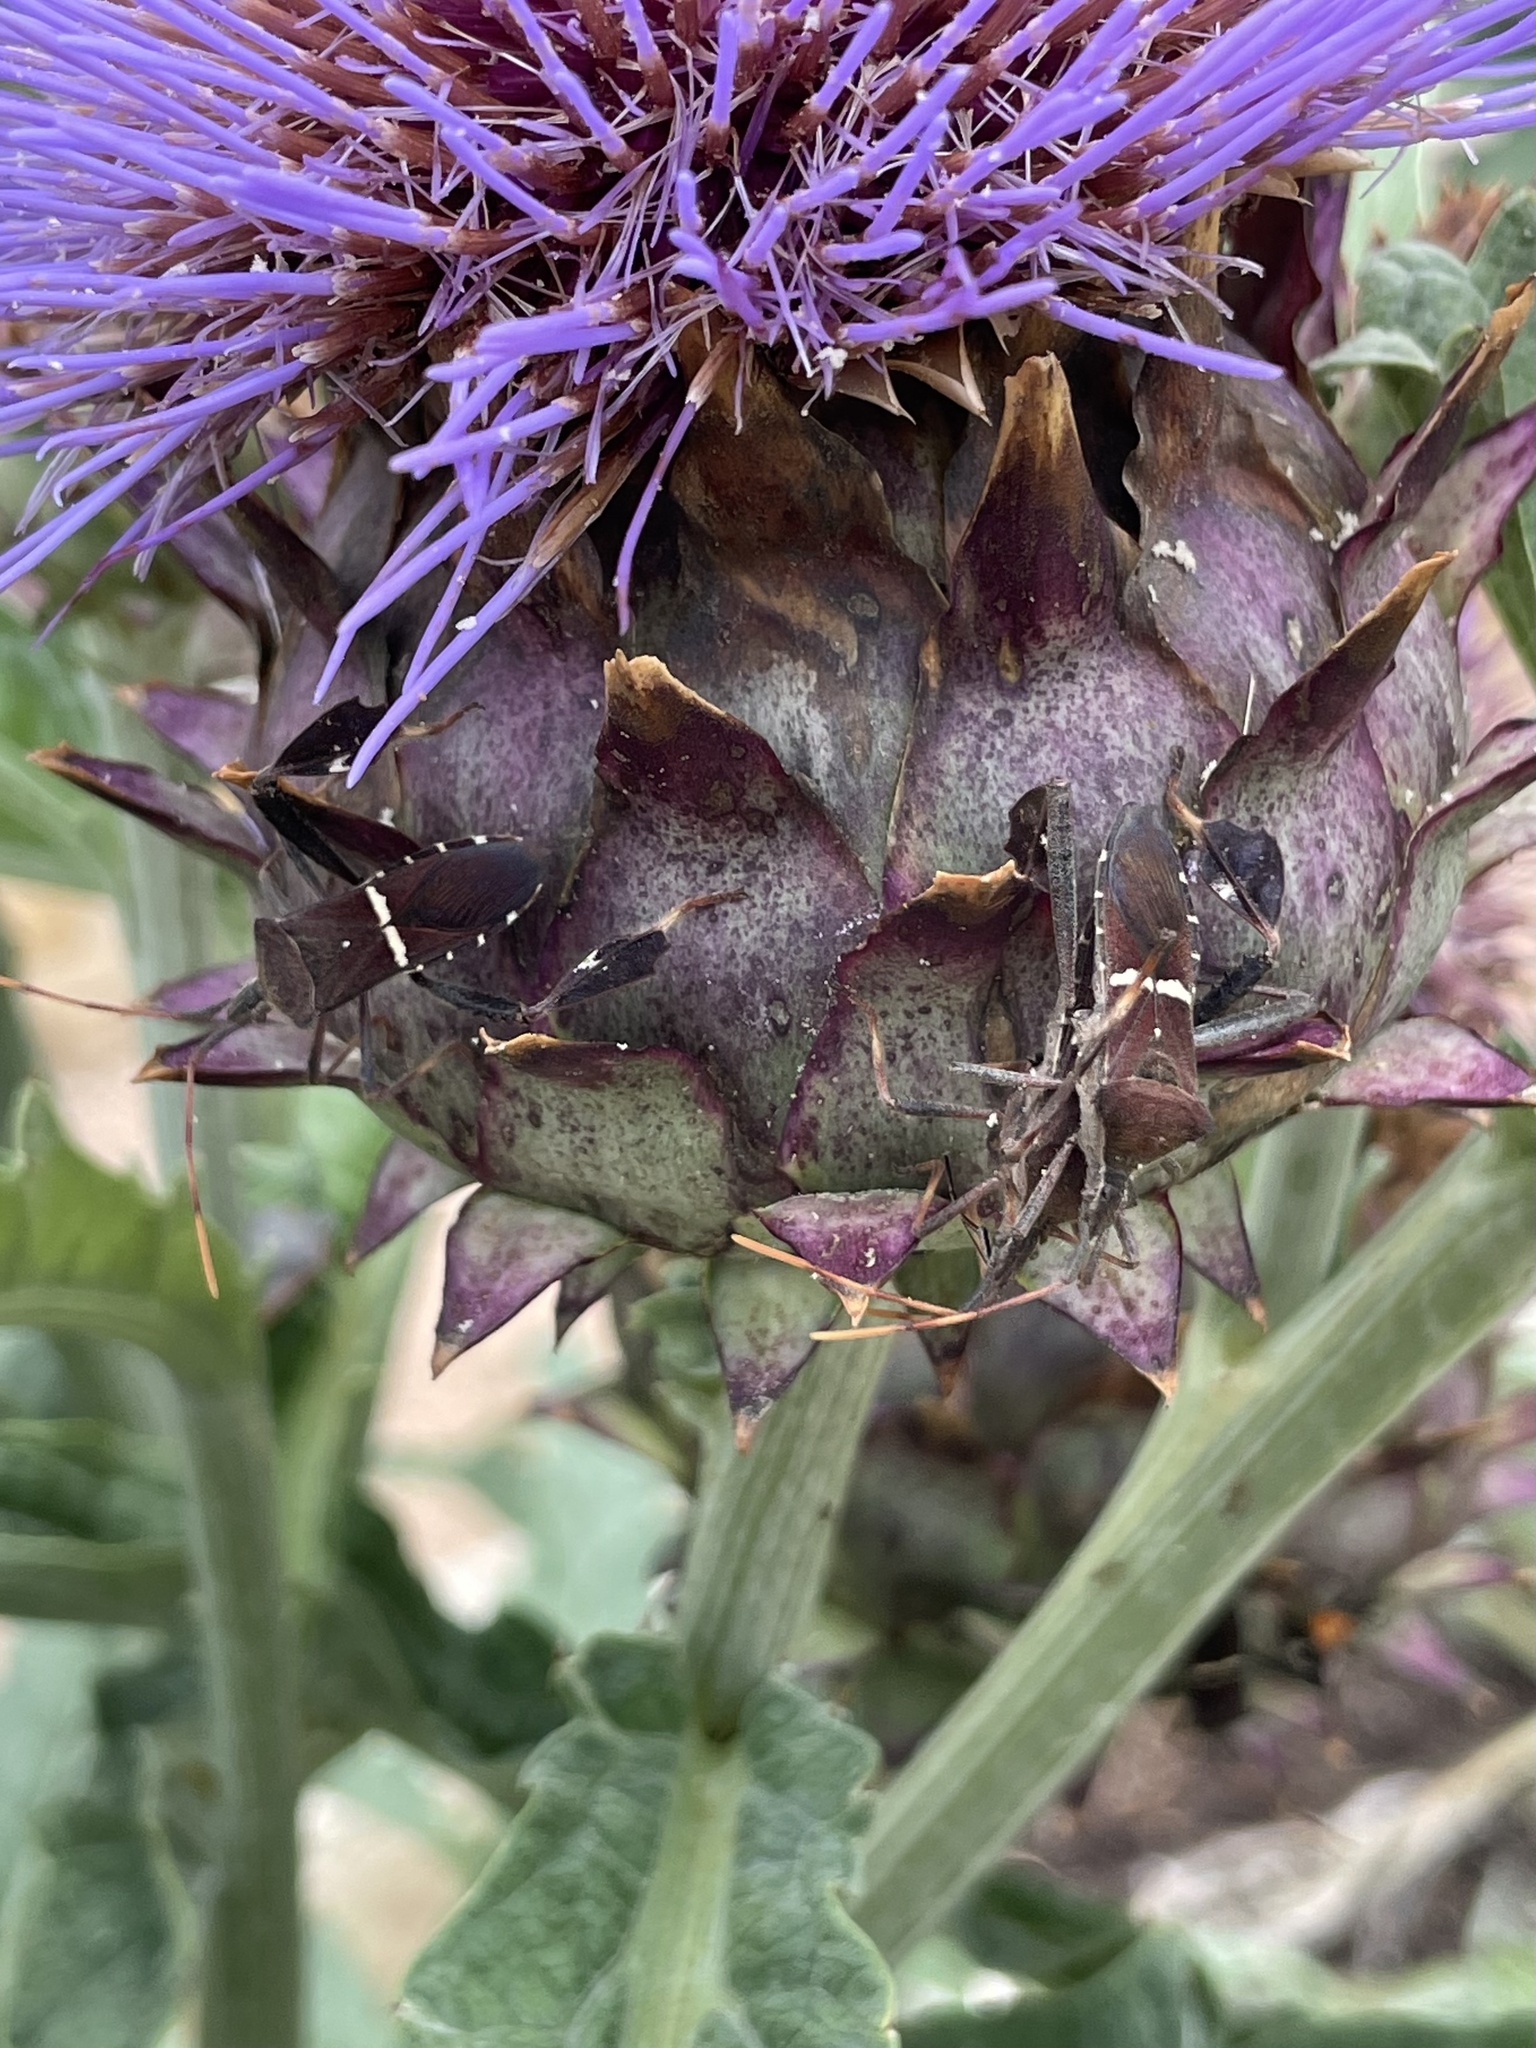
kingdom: Animalia
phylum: Arthropoda
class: Insecta
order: Hemiptera
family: Coreidae
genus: Leptoglossus
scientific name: Leptoglossus phyllopus
